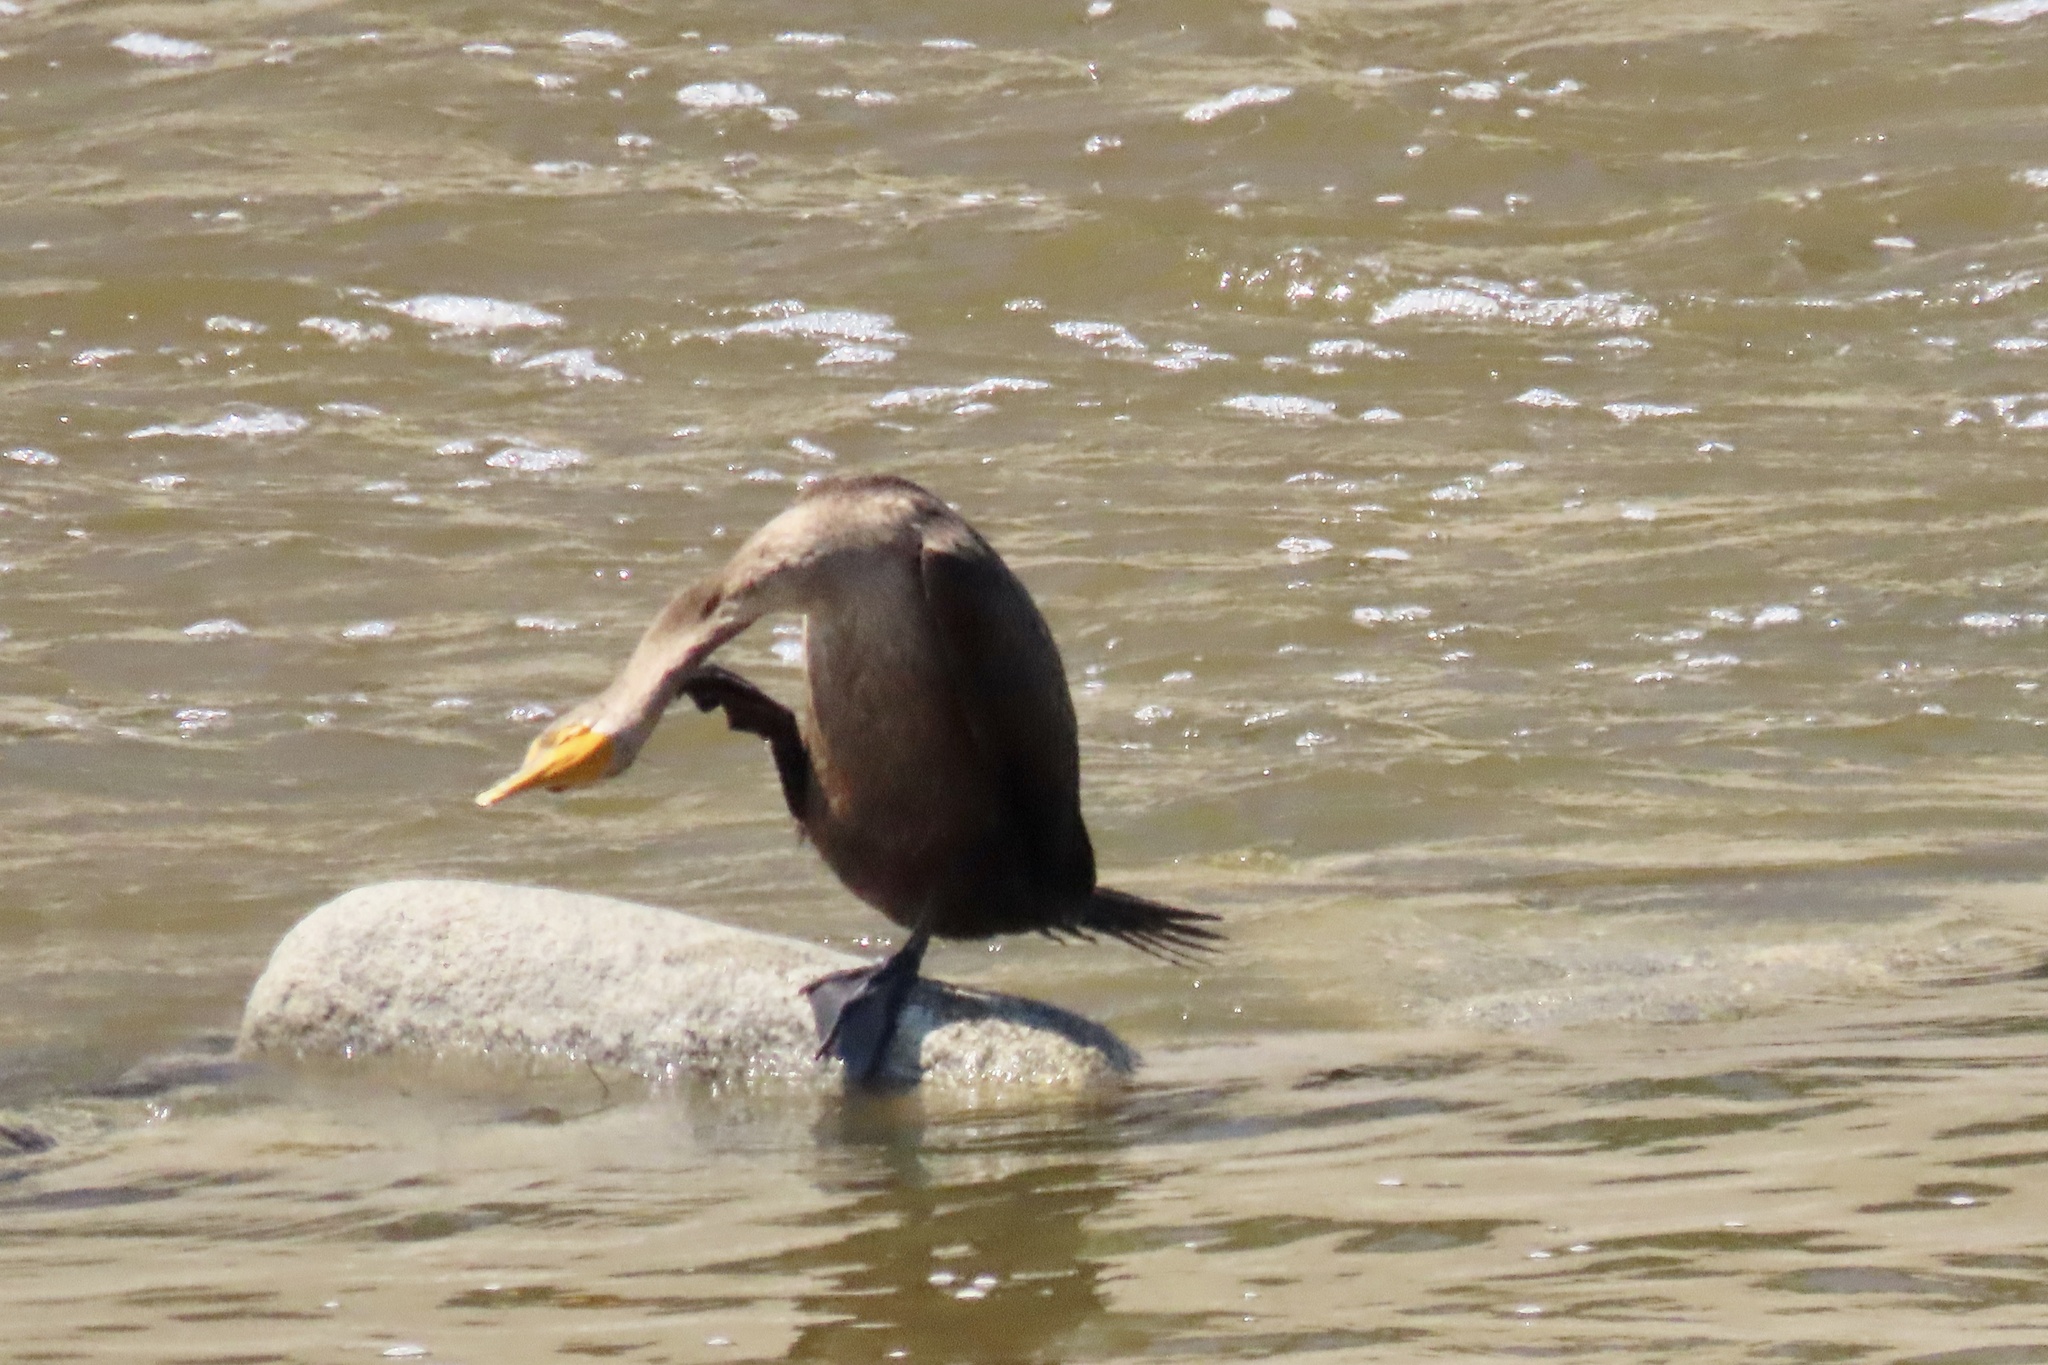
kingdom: Animalia
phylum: Chordata
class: Aves
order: Suliformes
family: Phalacrocoracidae
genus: Phalacrocorax
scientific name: Phalacrocorax auritus
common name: Double-crested cormorant
